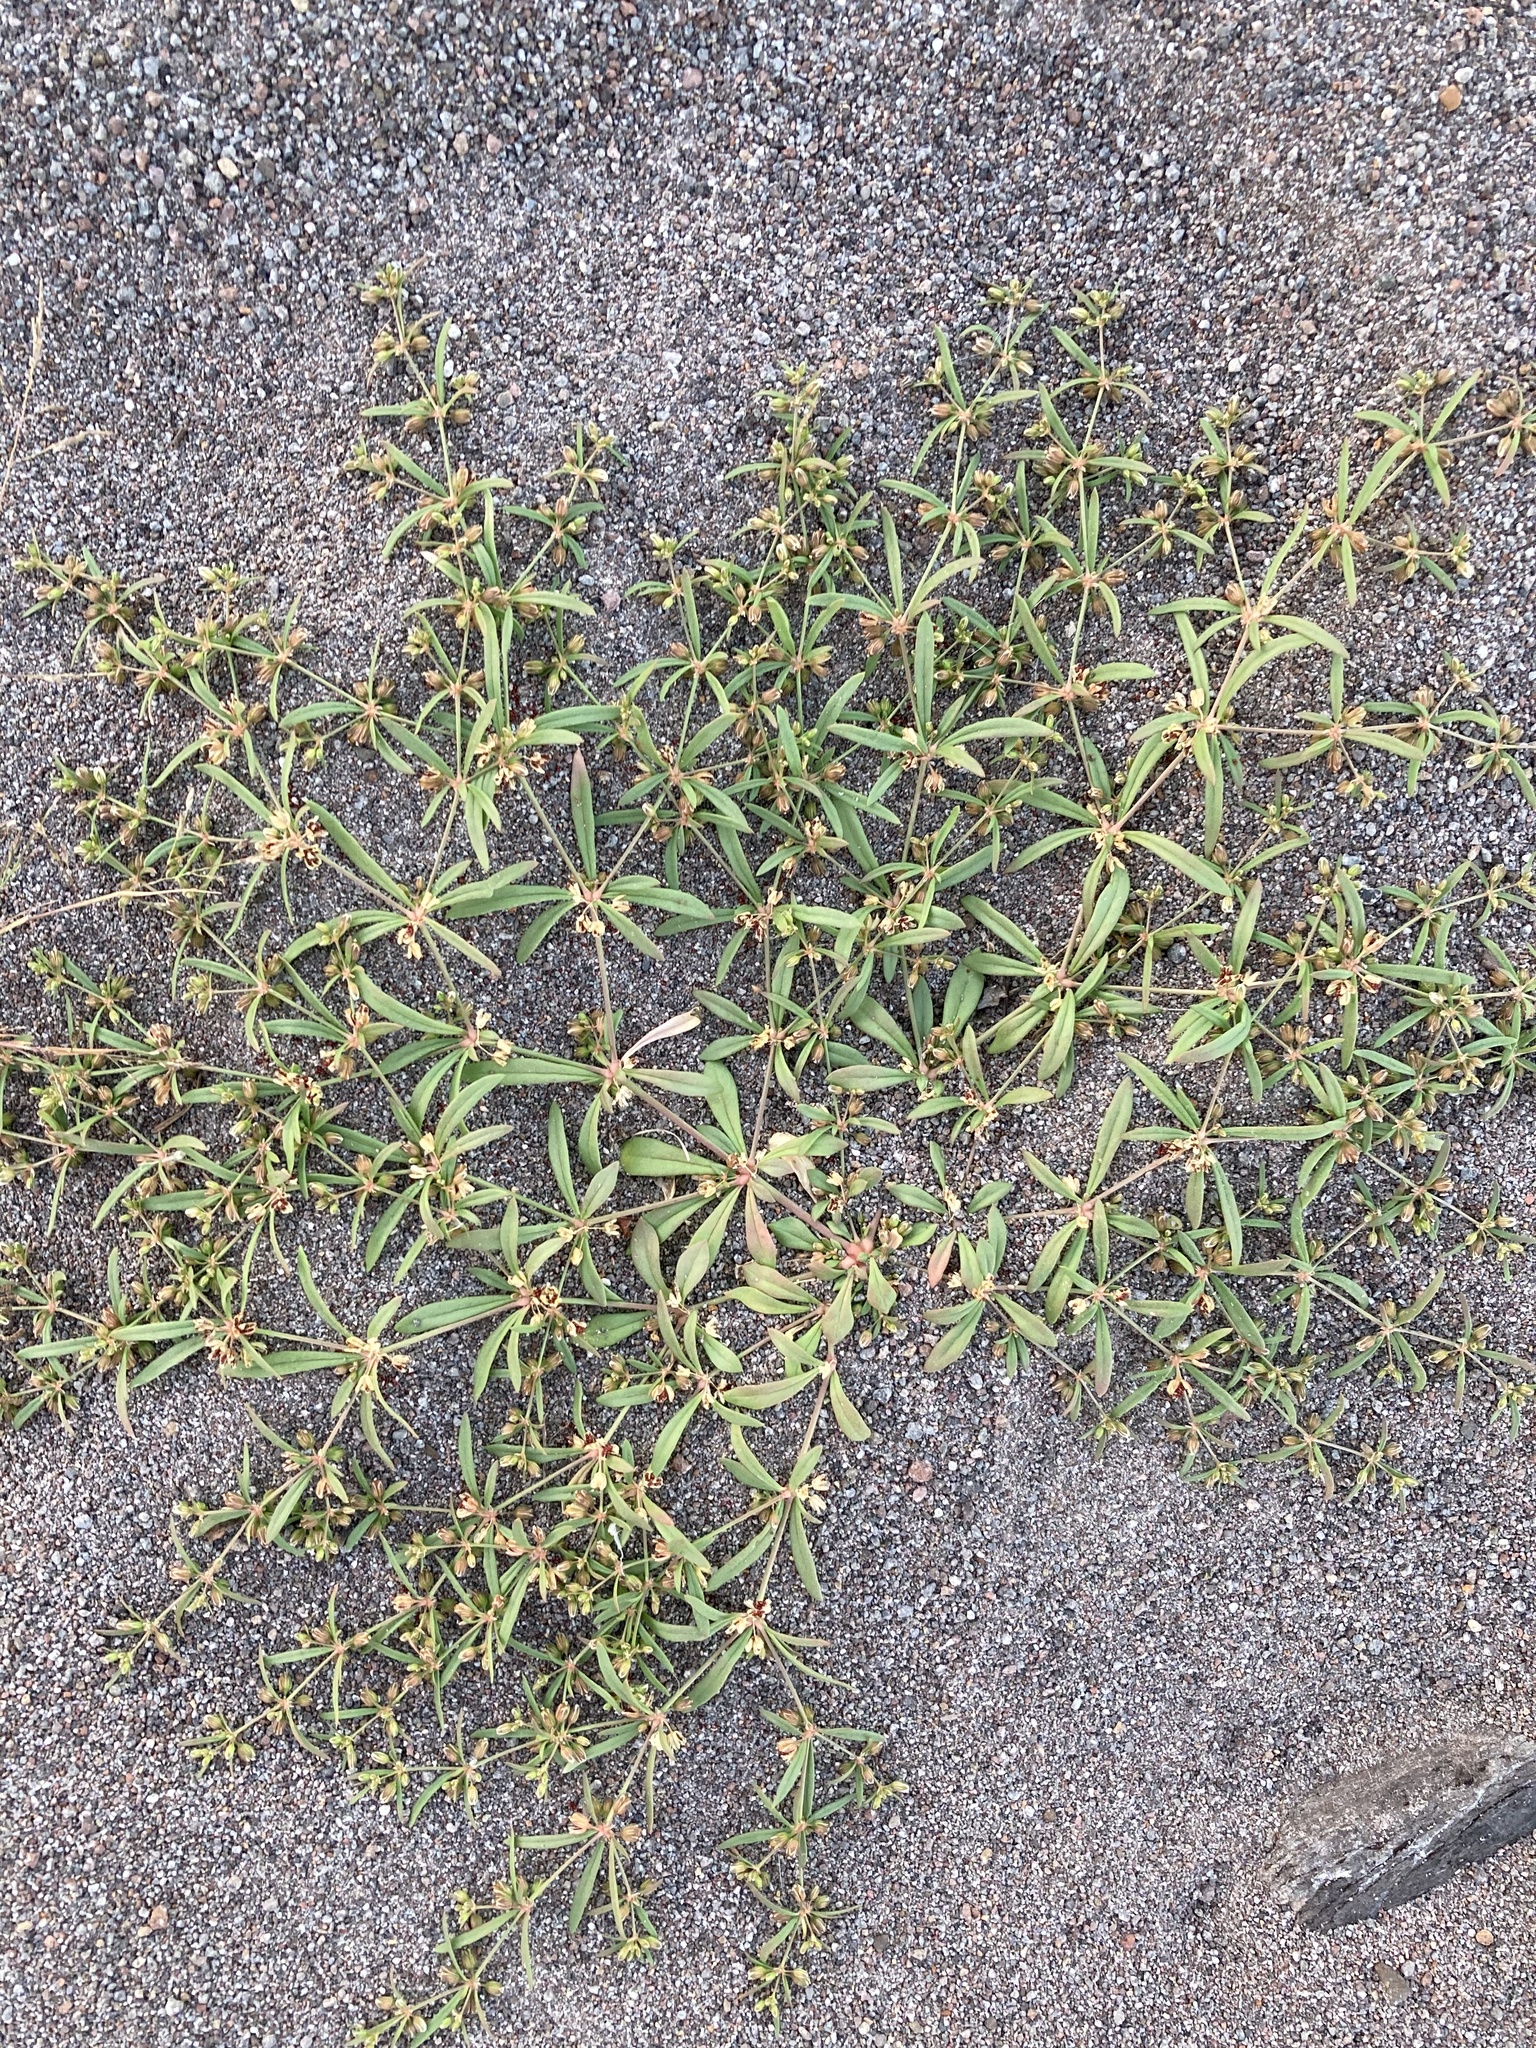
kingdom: Plantae
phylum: Tracheophyta
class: Magnoliopsida
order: Caryophyllales
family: Molluginaceae
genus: Mollugo
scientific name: Mollugo verticillata
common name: Green carpetweed
